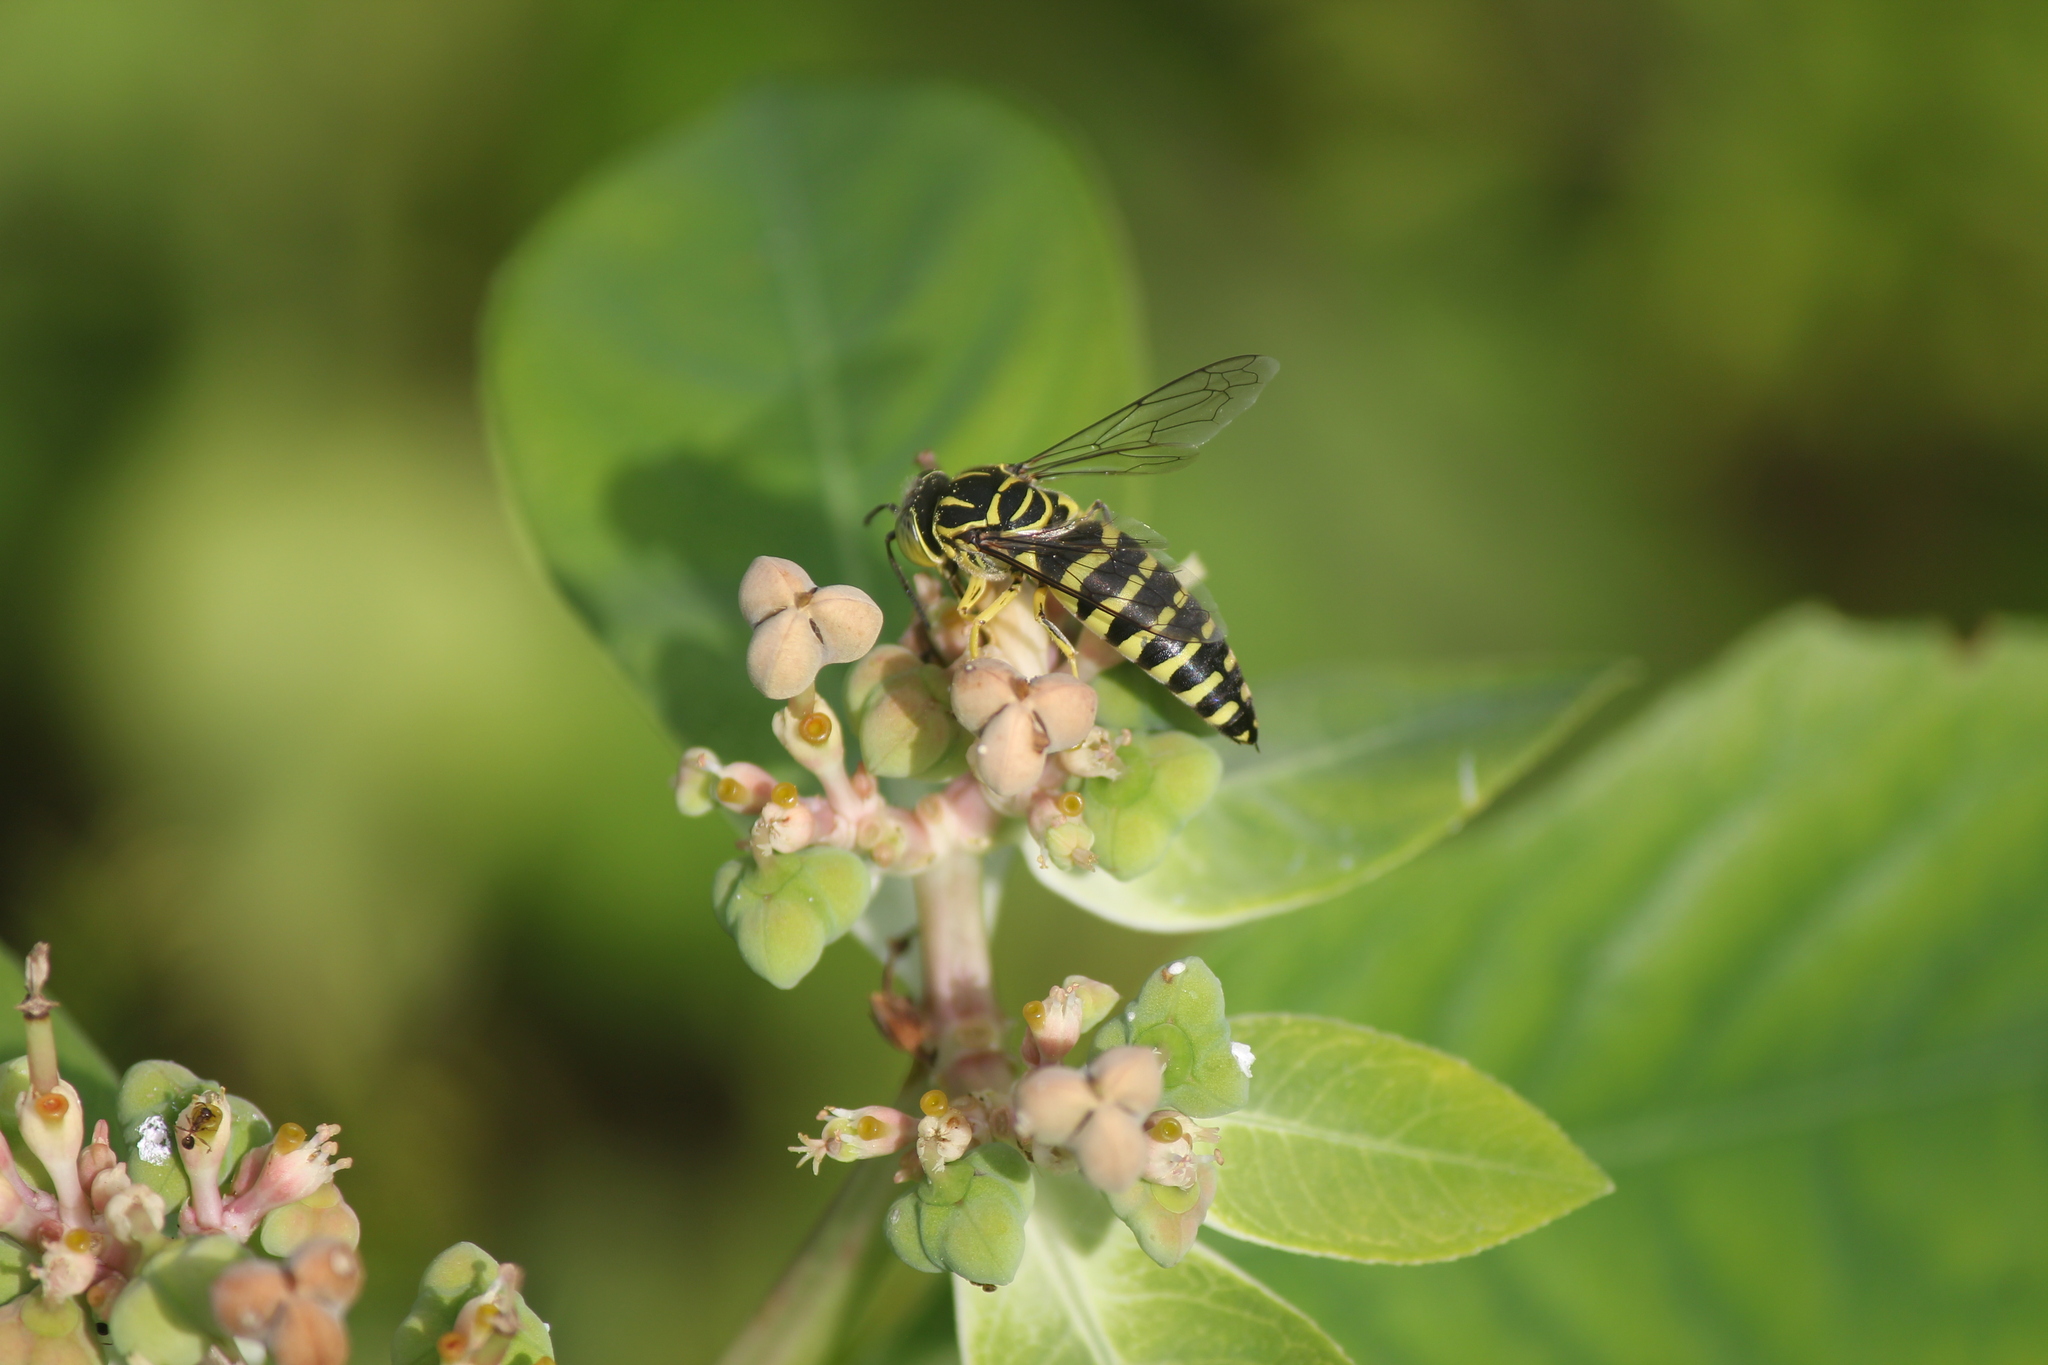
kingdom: Animalia
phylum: Arthropoda
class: Insecta
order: Hymenoptera
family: Crabronidae
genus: Bicyrtes
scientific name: Bicyrtes variegatus
